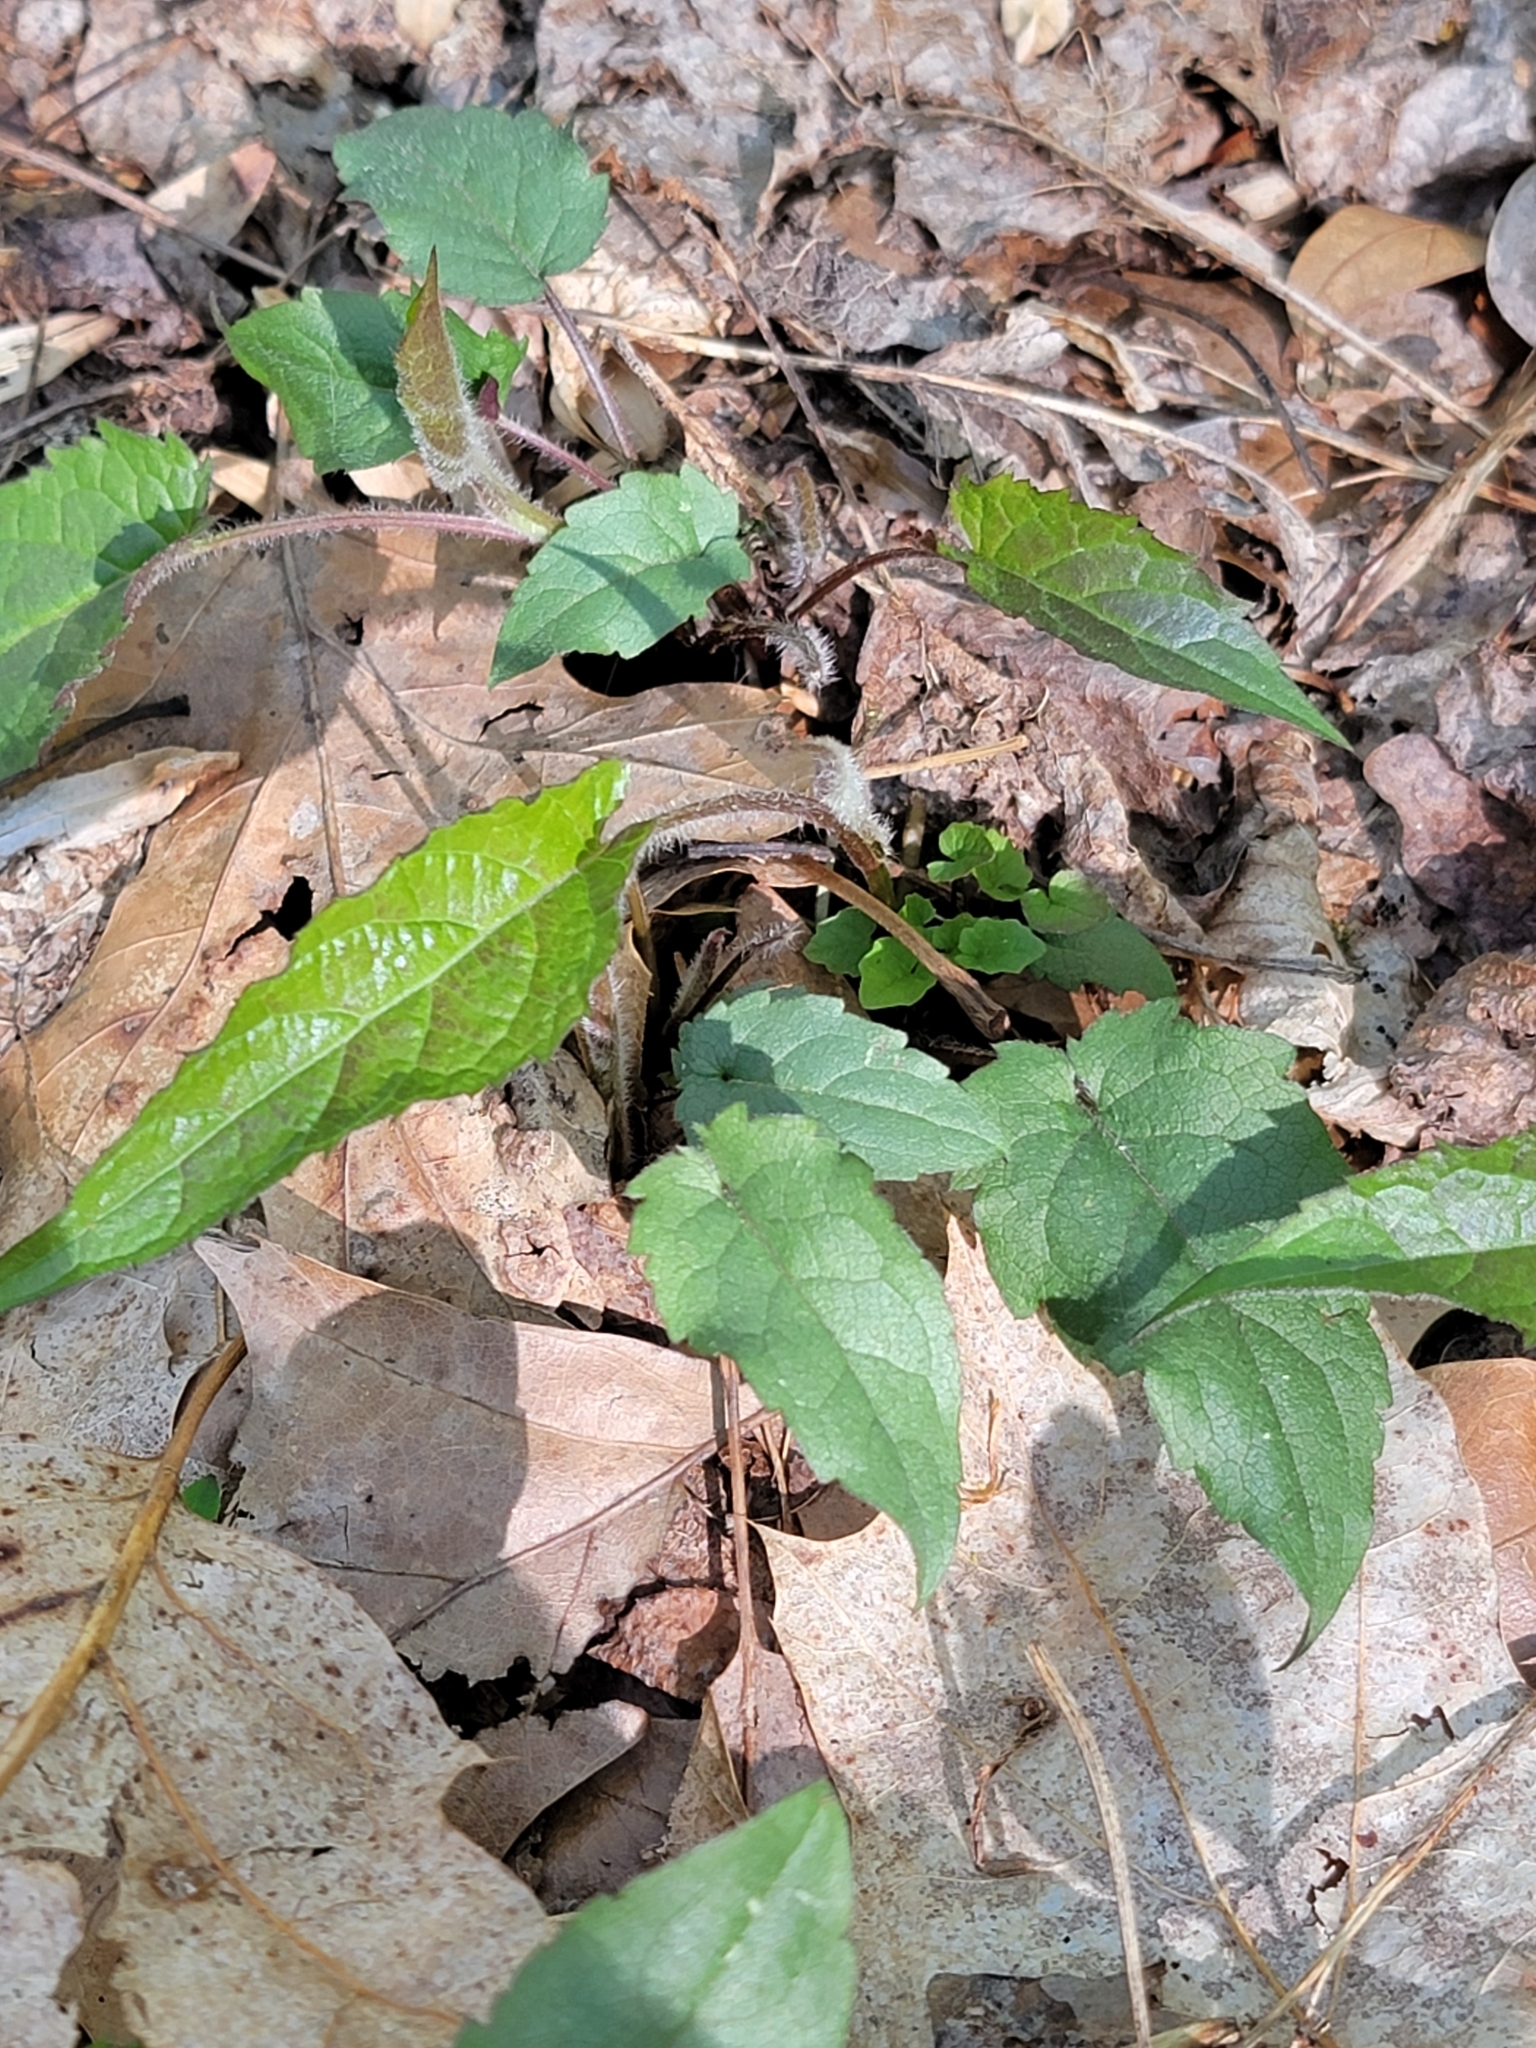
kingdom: Plantae
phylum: Tracheophyta
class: Magnoliopsida
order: Asterales
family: Asteraceae
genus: Eurybia
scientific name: Eurybia divaricata
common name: White wood aster
